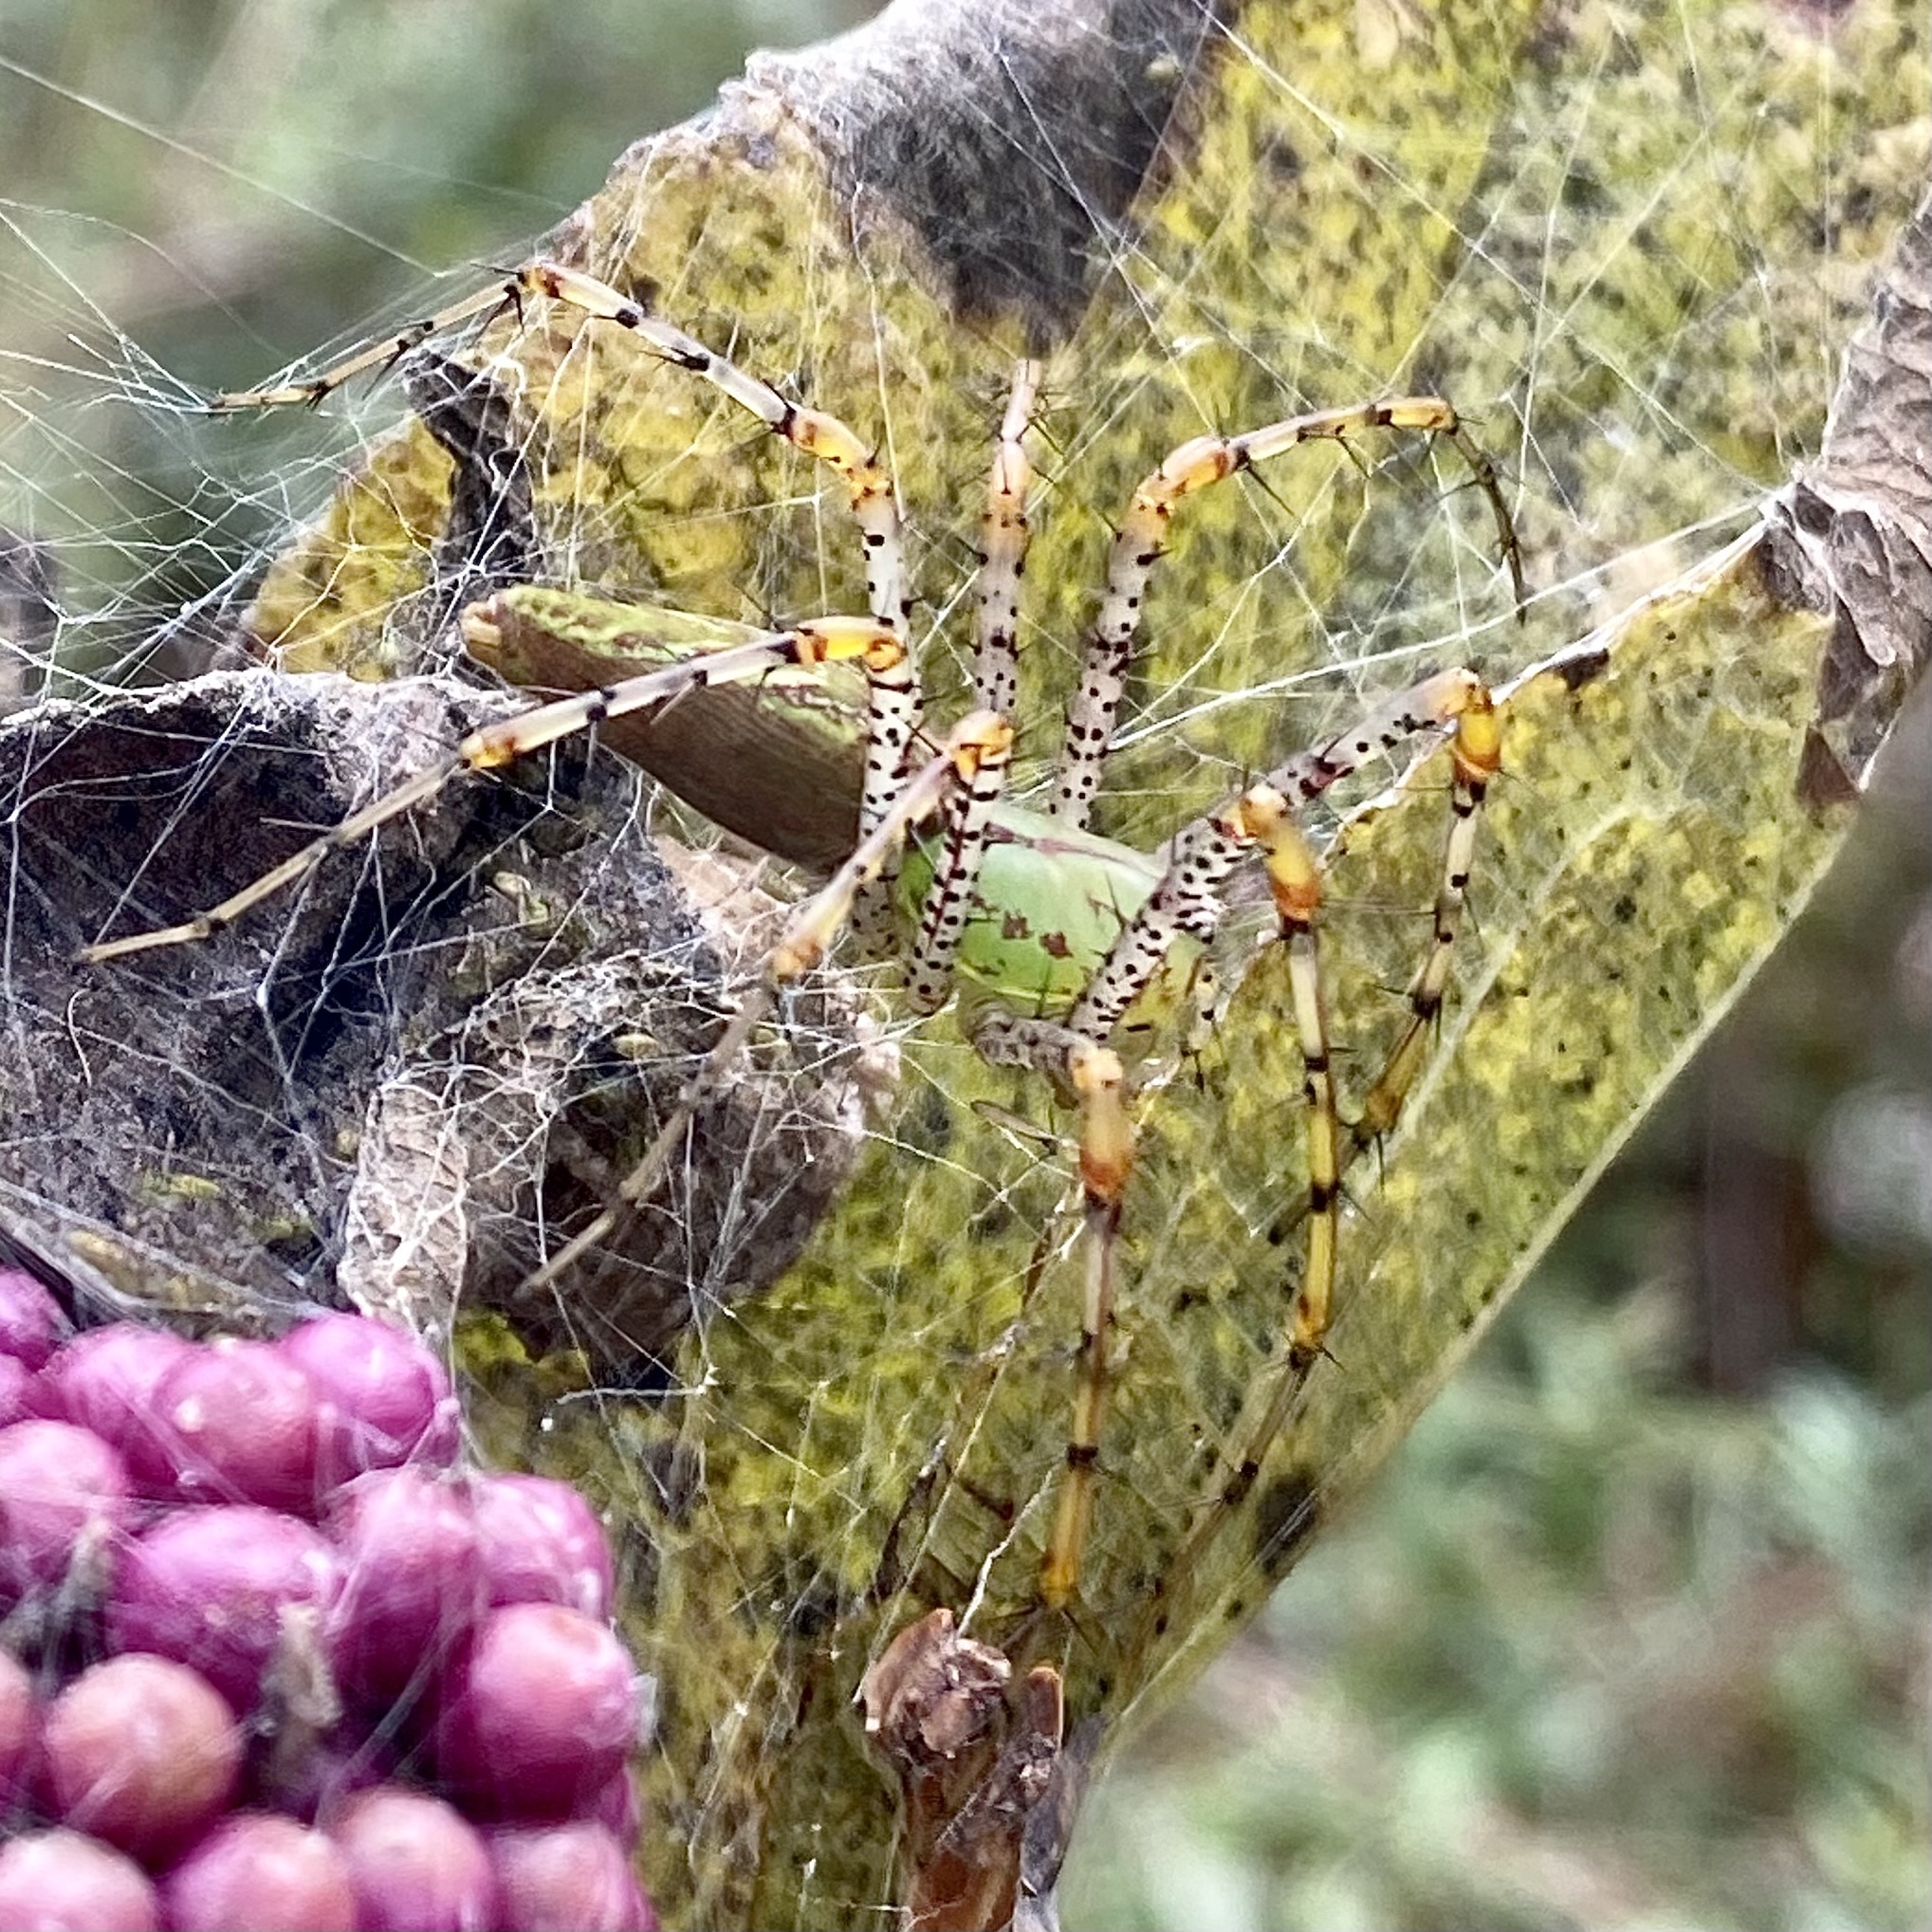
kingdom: Animalia
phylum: Arthropoda
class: Arachnida
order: Araneae
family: Oxyopidae
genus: Peucetia
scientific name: Peucetia viridans
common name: Lynx spiders
